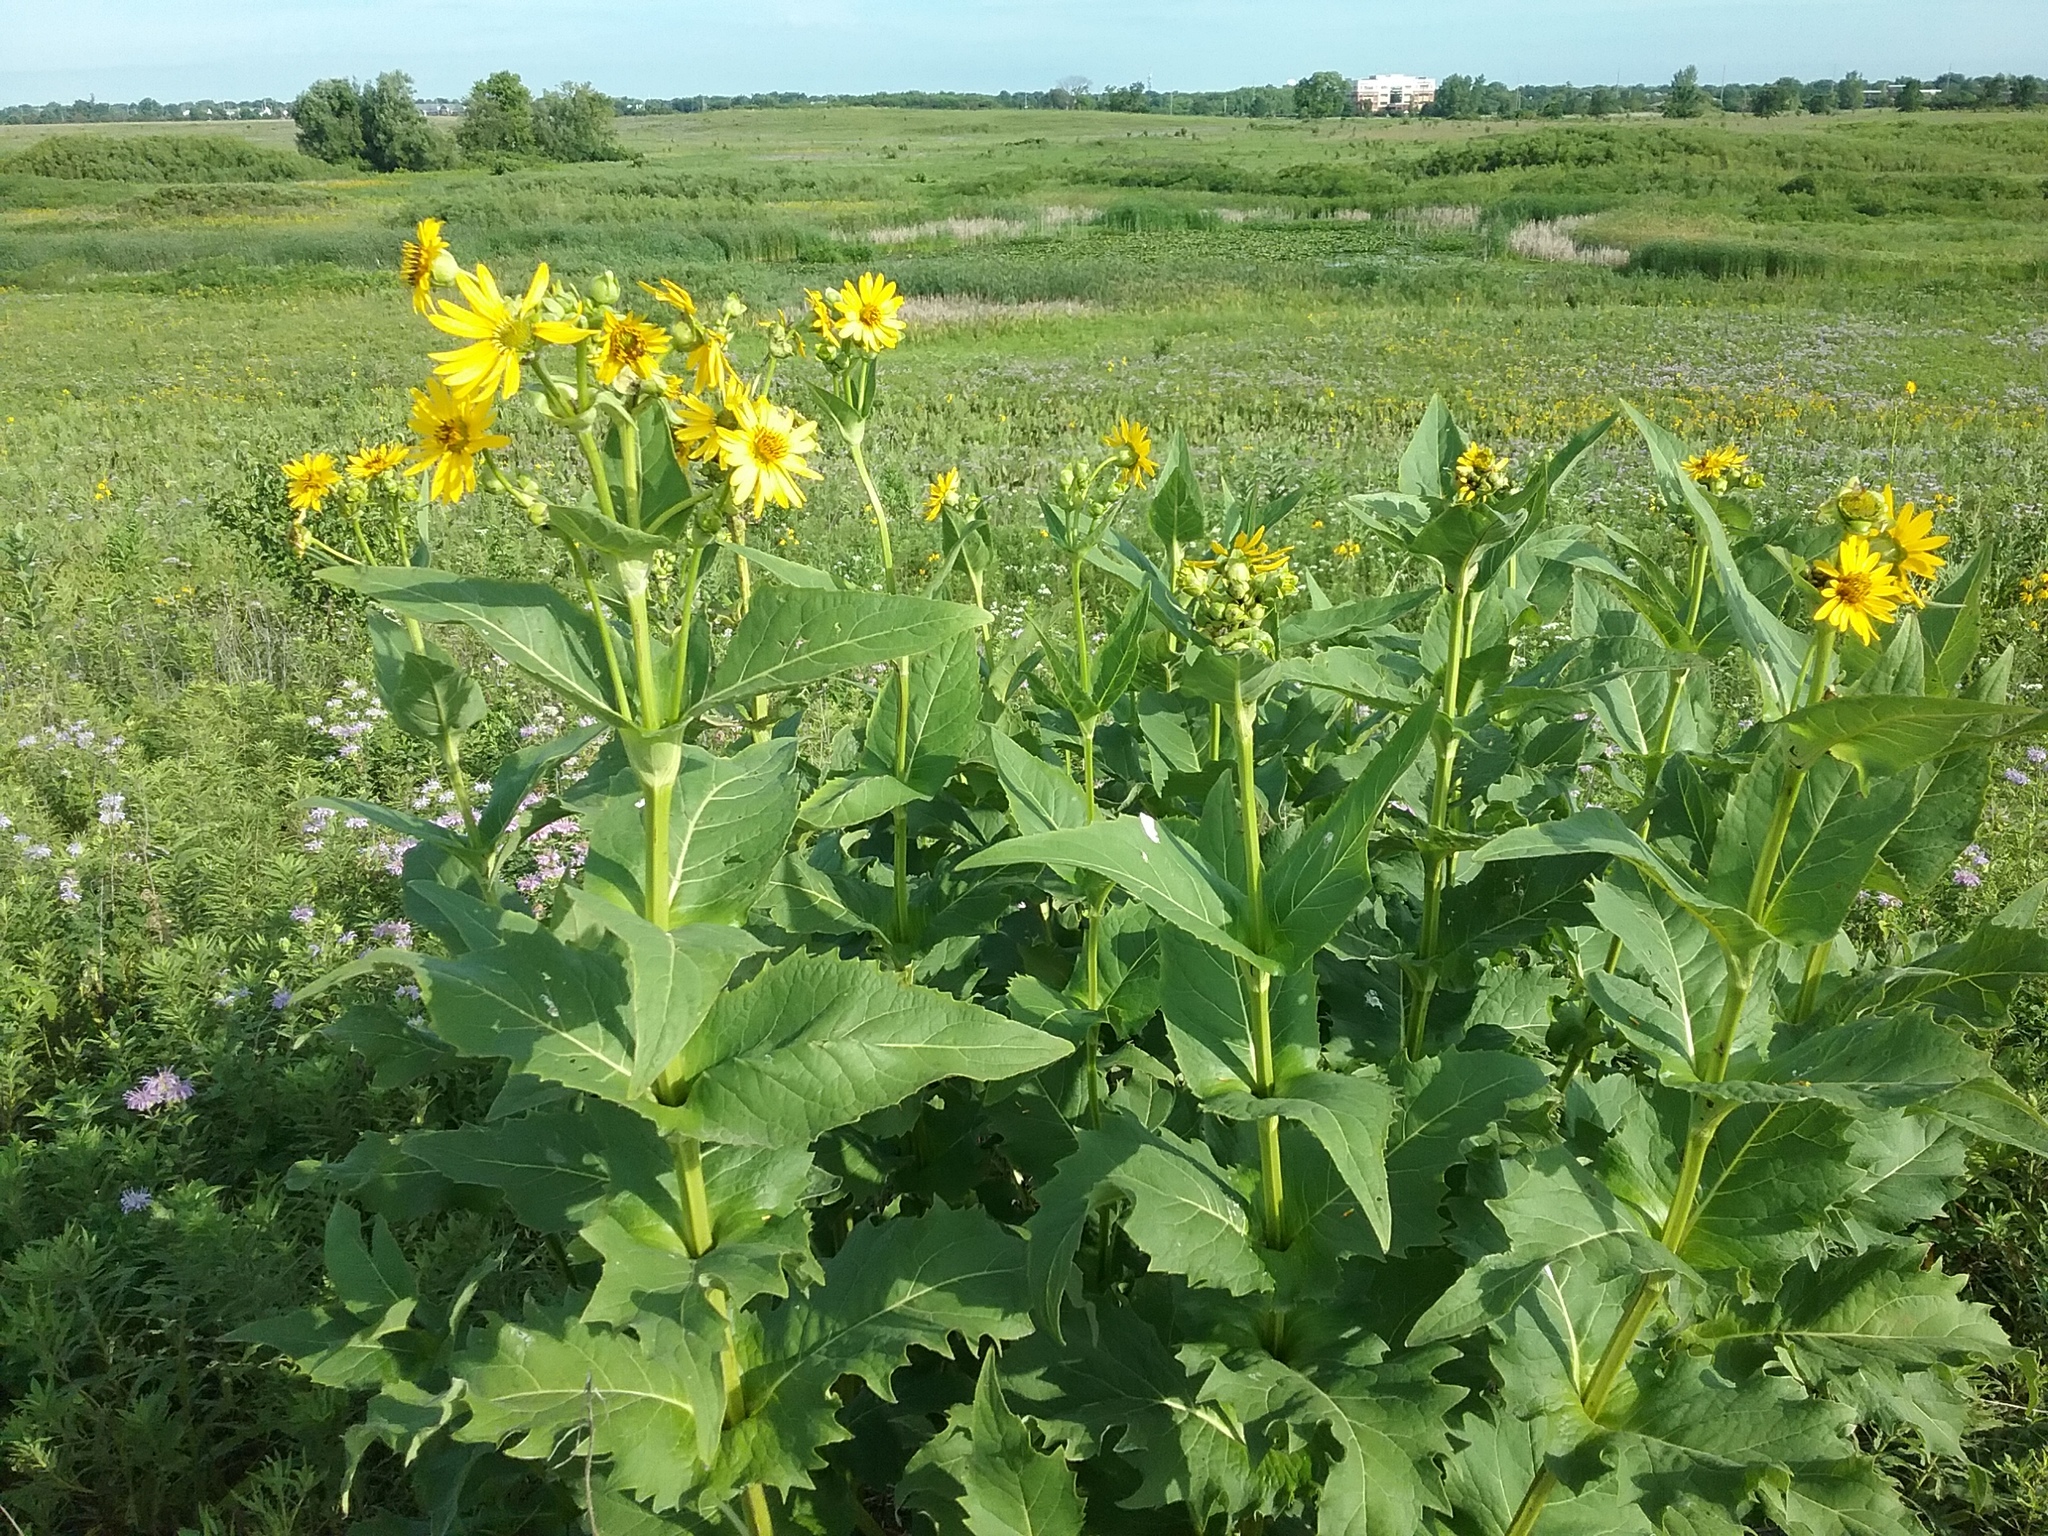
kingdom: Plantae
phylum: Tracheophyta
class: Magnoliopsida
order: Asterales
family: Asteraceae
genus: Silphium
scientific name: Silphium perfoliatum
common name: Cup-plant
